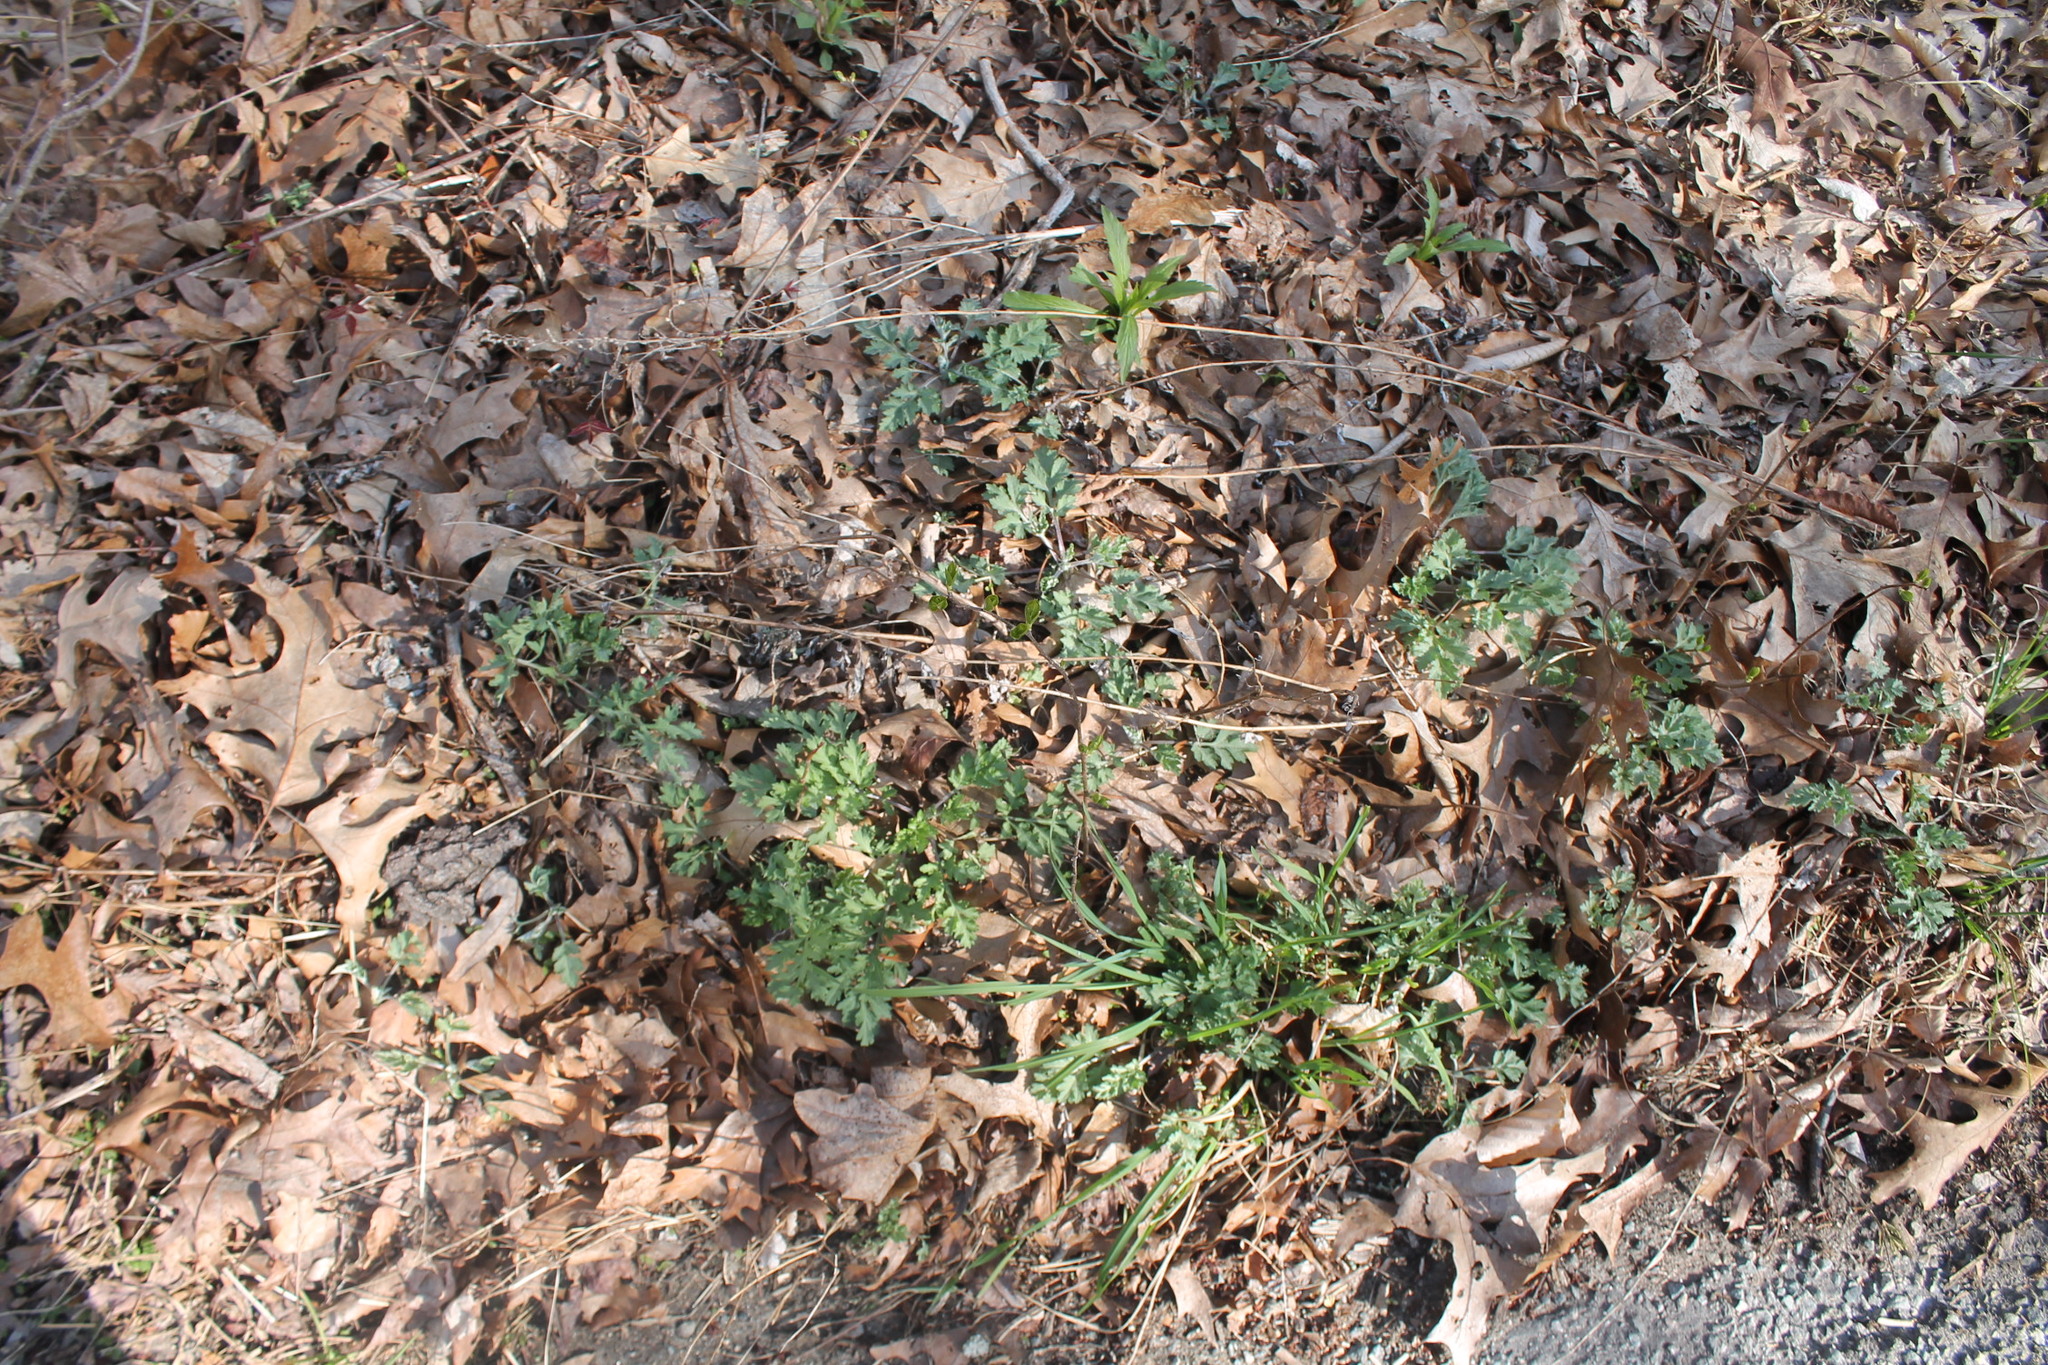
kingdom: Plantae
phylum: Tracheophyta
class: Magnoliopsida
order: Asterales
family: Asteraceae
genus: Artemisia
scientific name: Artemisia vulgaris
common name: Mugwort
